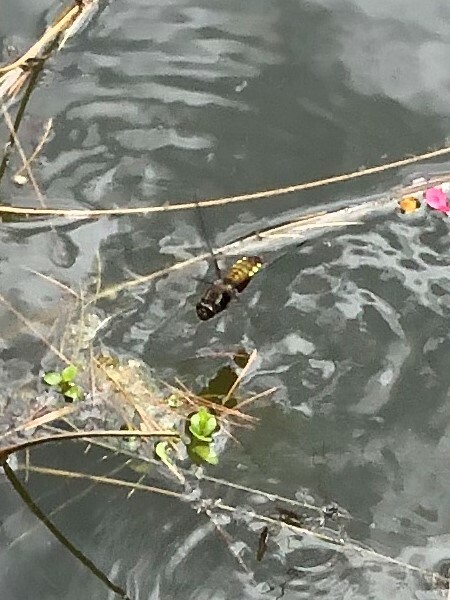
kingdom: Animalia
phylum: Arthropoda
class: Insecta
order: Odonata
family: Libellulidae
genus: Libellula
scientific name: Libellula depressa
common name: Broad-bodied chaser
